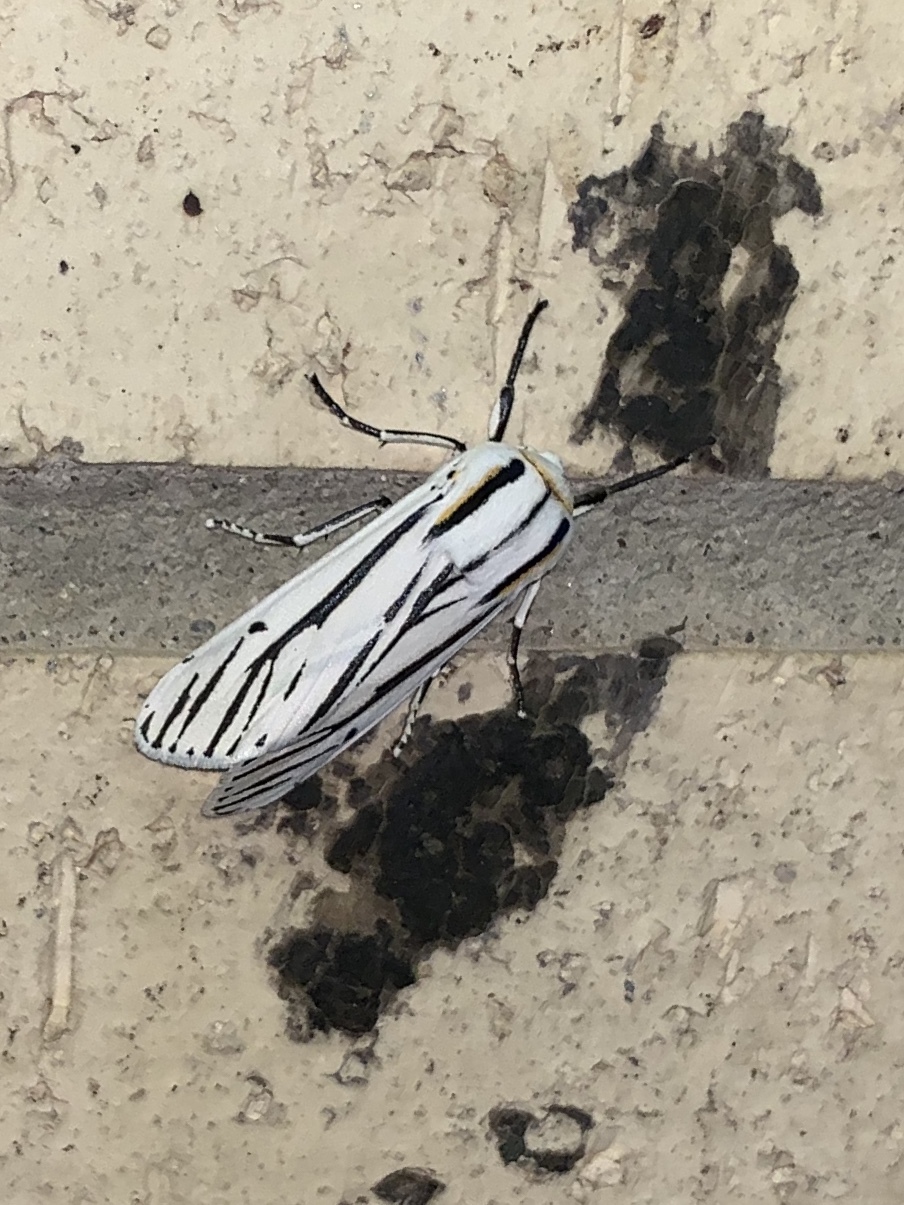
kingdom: Animalia
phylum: Arthropoda
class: Insecta
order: Lepidoptera
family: Erebidae
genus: Ectypia
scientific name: Ectypia clio
